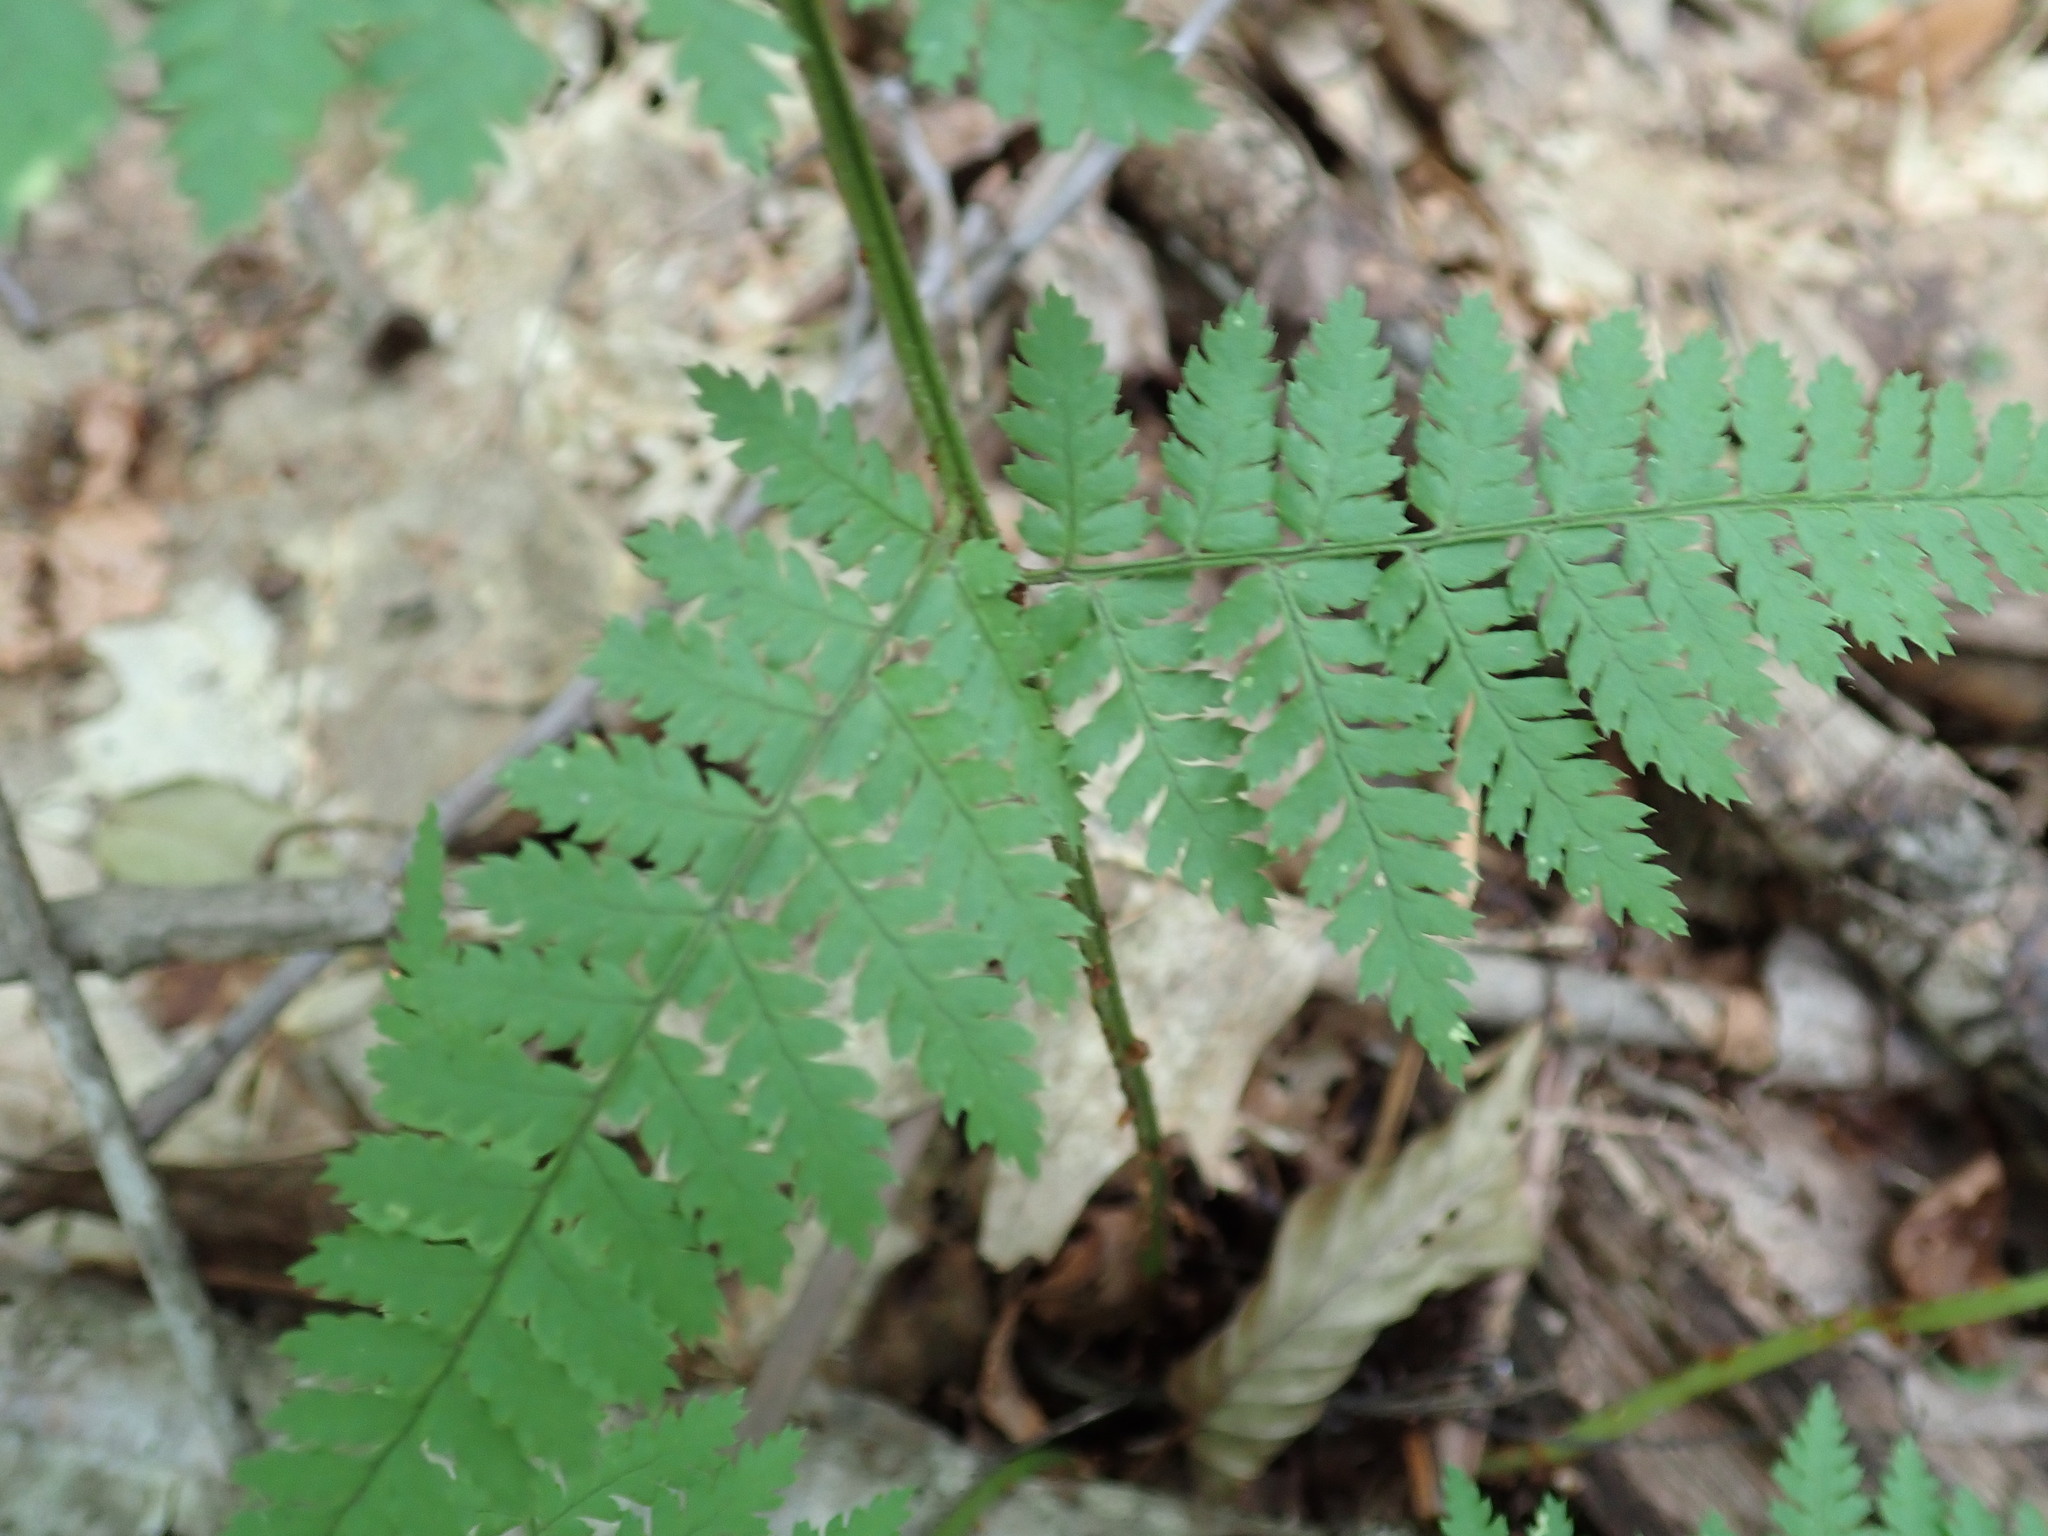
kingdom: Plantae
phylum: Tracheophyta
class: Polypodiopsida
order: Polypodiales
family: Dryopteridaceae
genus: Dryopteris
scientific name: Dryopteris intermedia
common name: Evergreen wood fern
